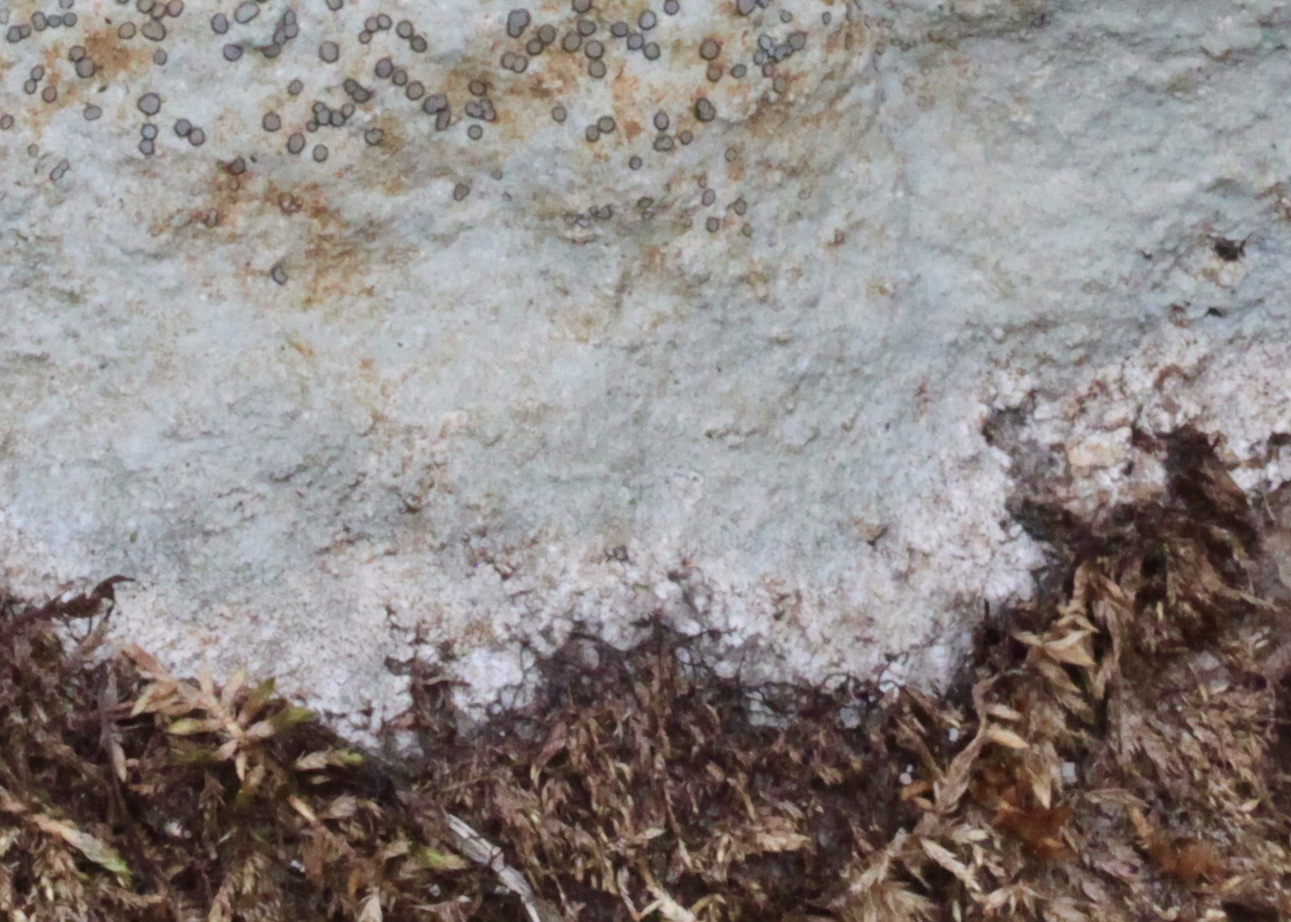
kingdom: Fungi
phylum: Ascomycota
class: Lecanoromycetes
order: Lecideales
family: Lecideaceae
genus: Porpidia
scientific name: Porpidia albocaerulescens
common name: Smokey-eyed boulder lichen
